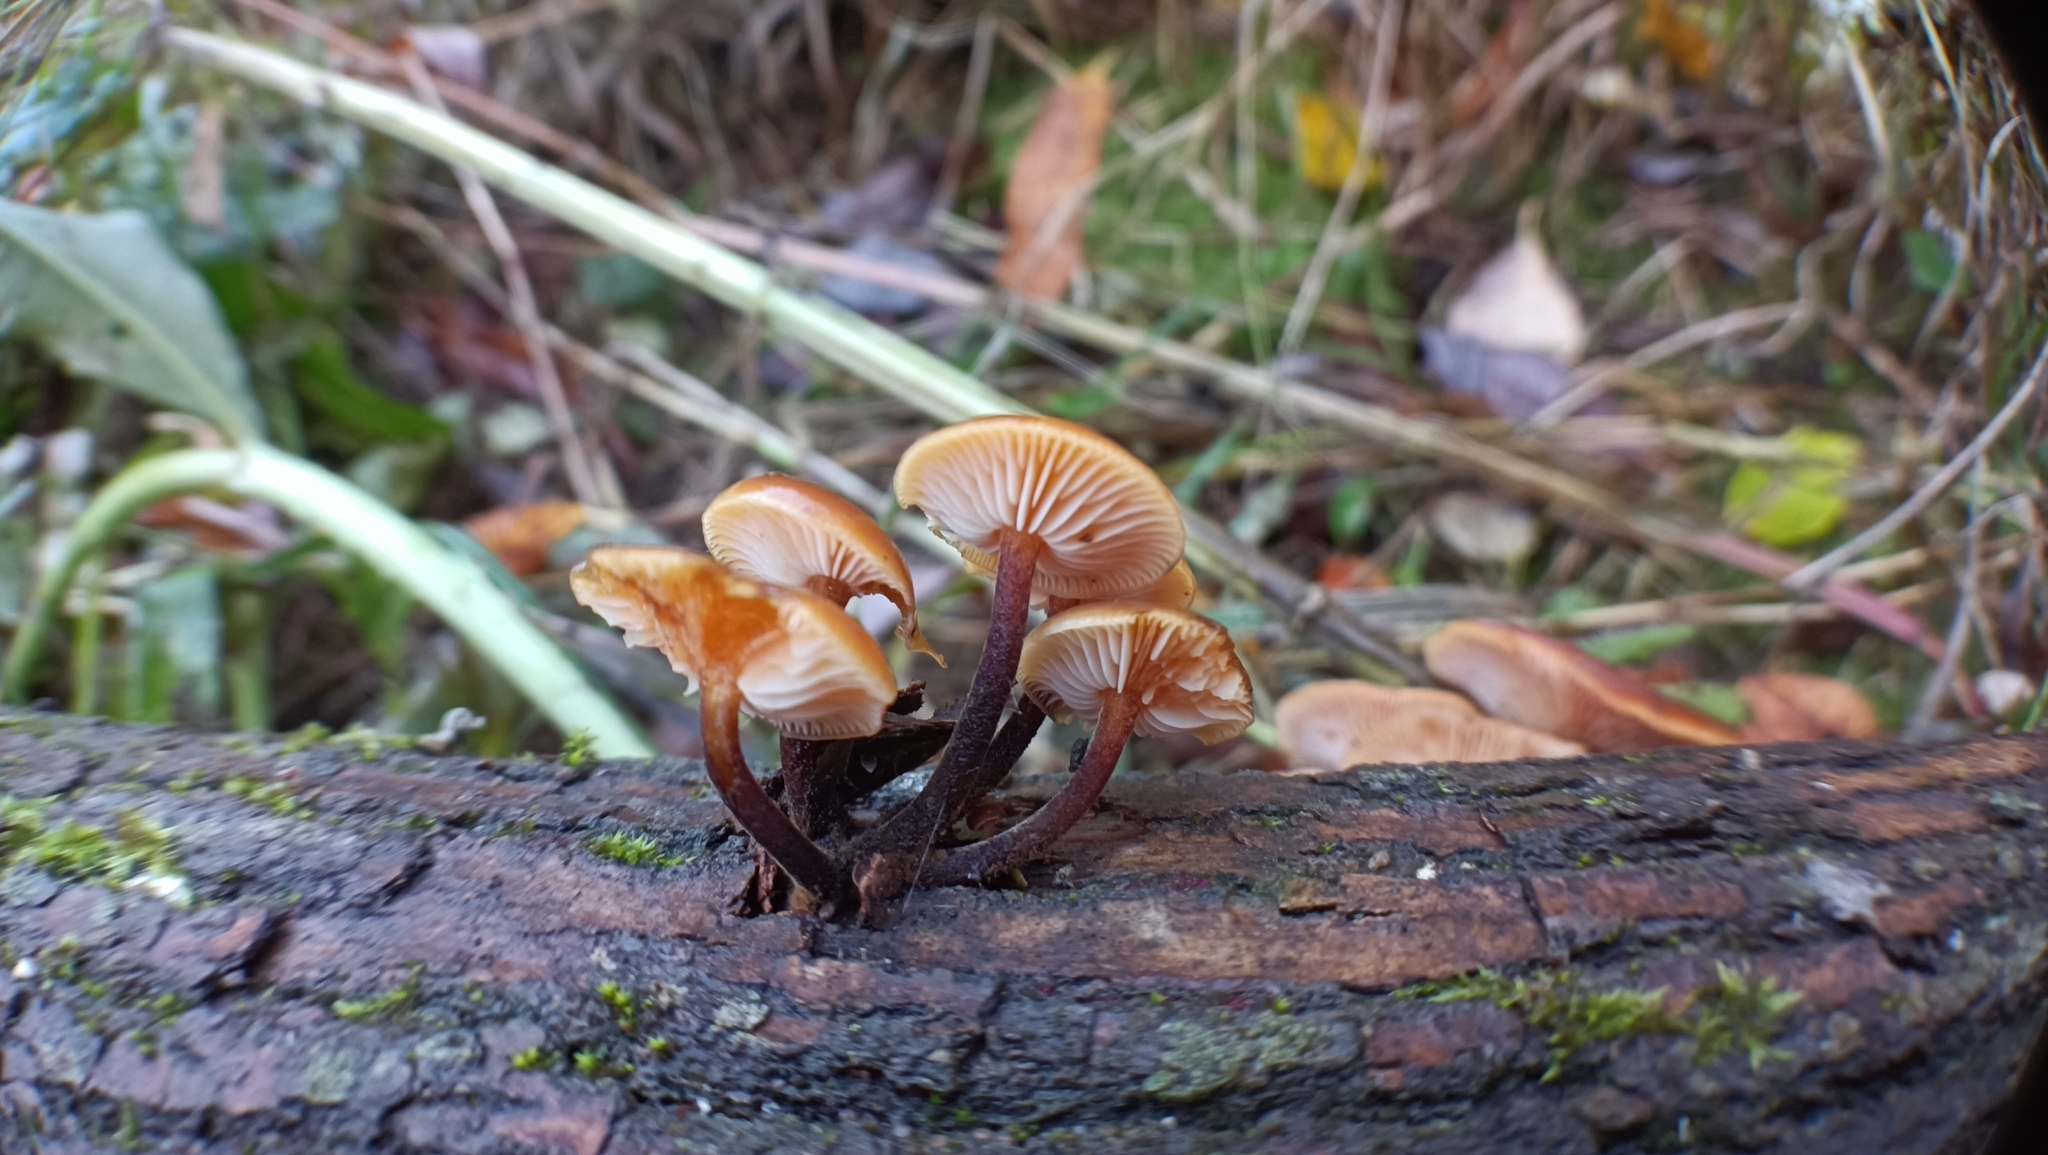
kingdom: Fungi
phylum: Basidiomycota
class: Agaricomycetes
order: Agaricales
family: Physalacriaceae
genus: Flammulina
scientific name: Flammulina
